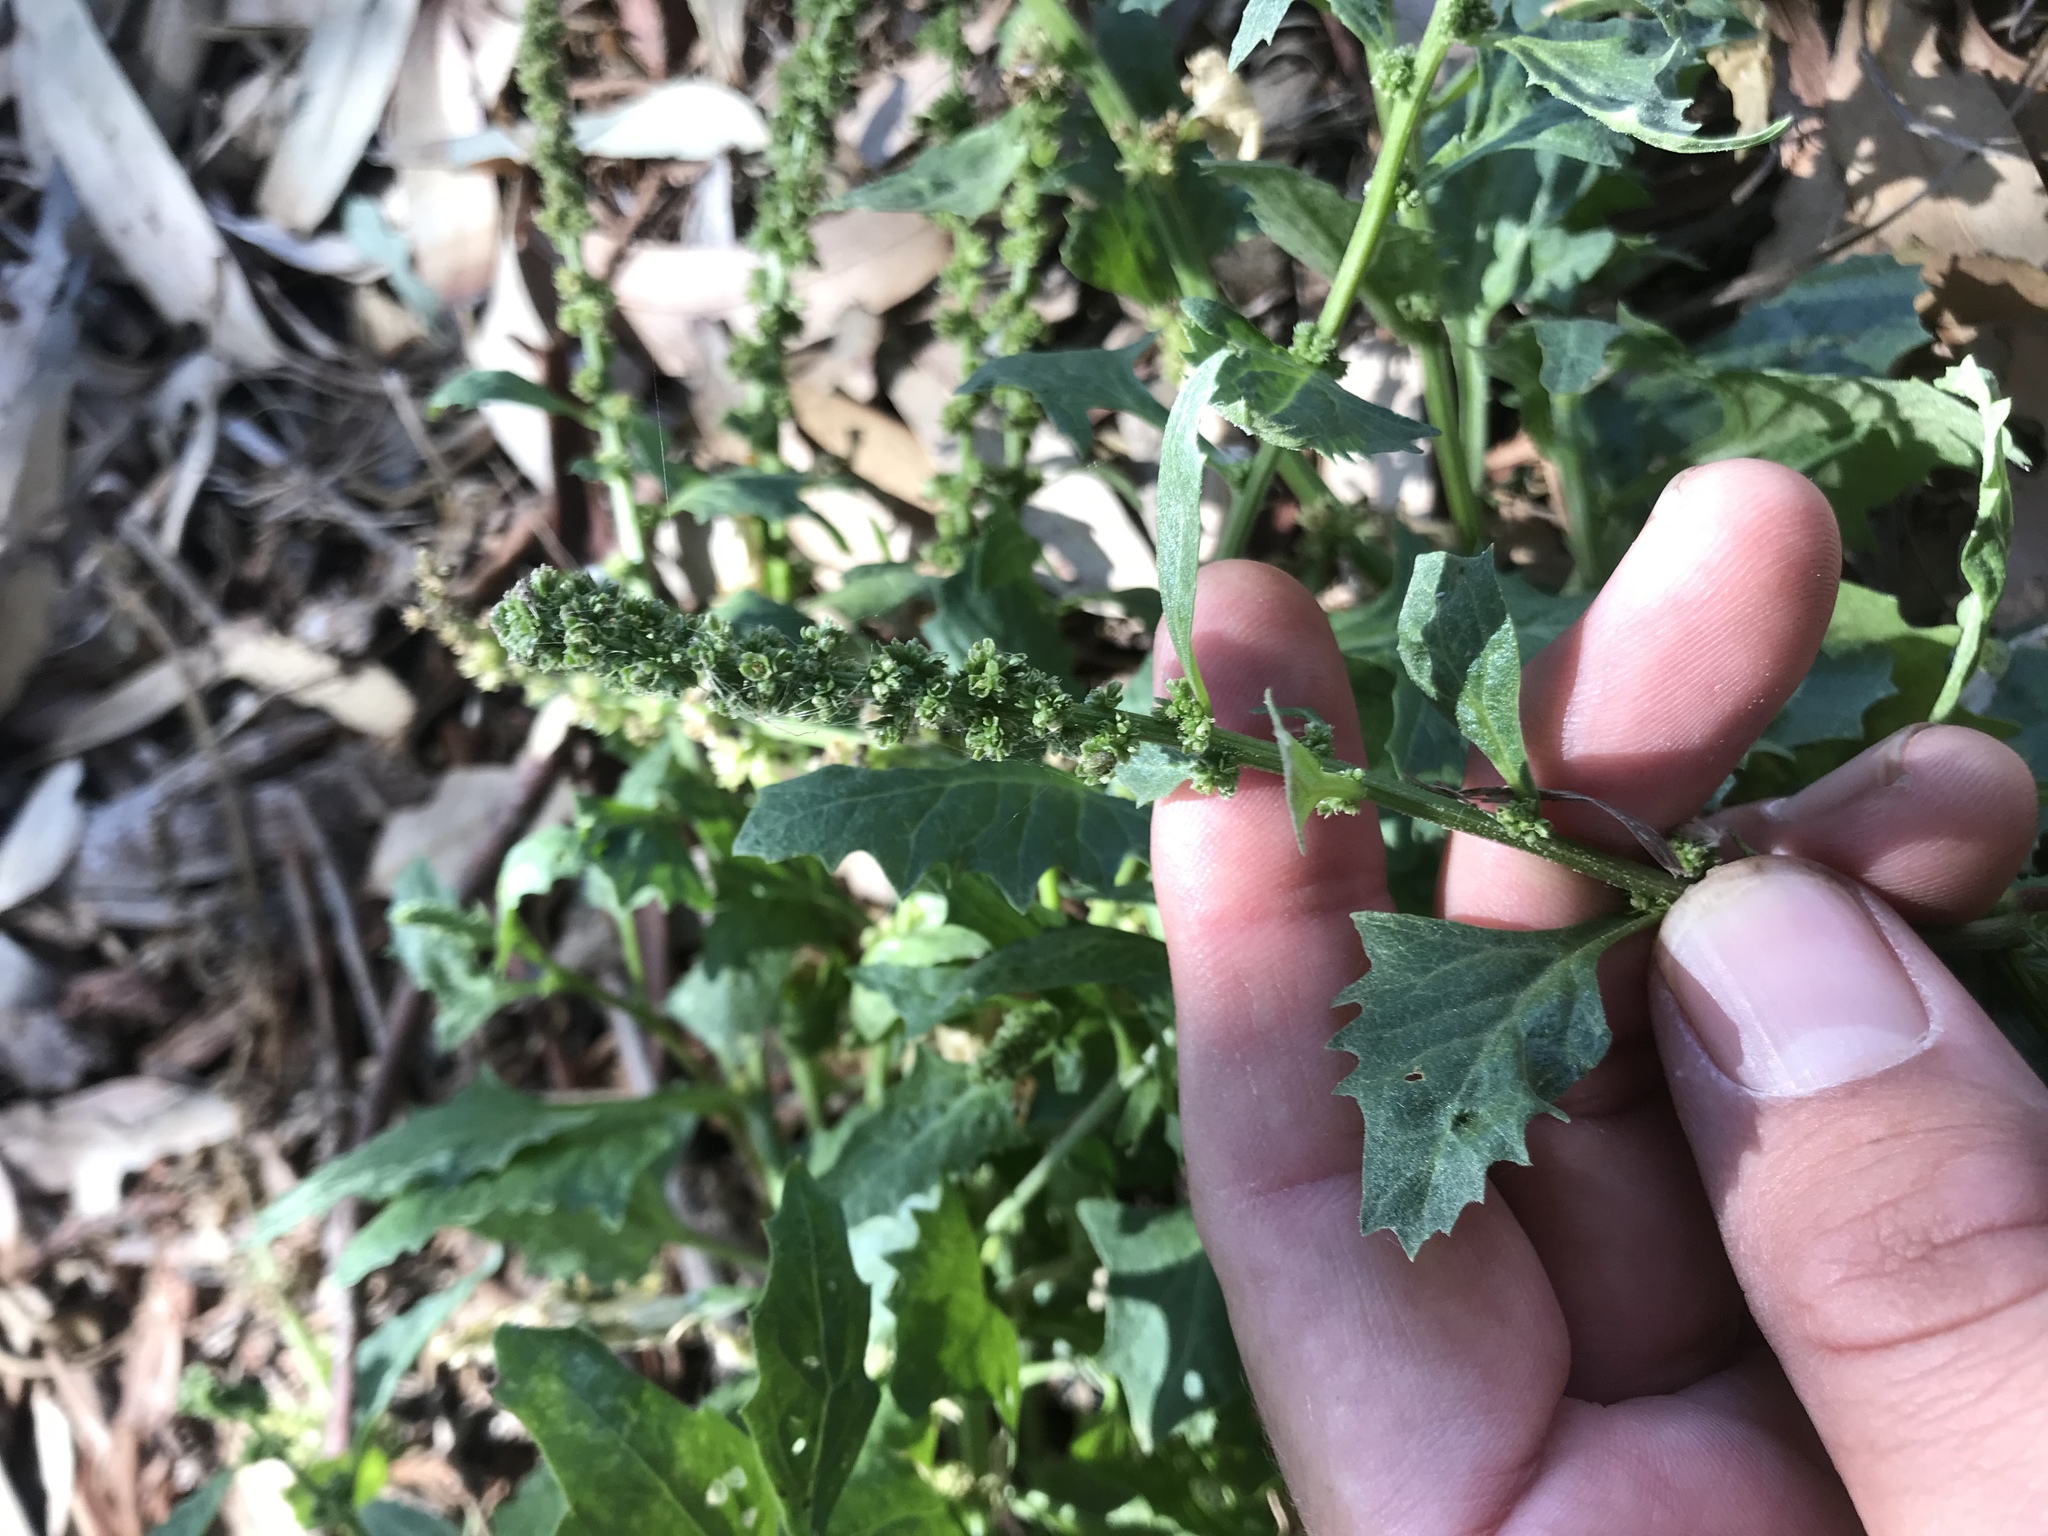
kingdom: Plantae
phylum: Tracheophyta
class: Magnoliopsida
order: Caryophyllales
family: Amaranthaceae
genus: Blitum
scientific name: Blitum californicum
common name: California goosefoot
